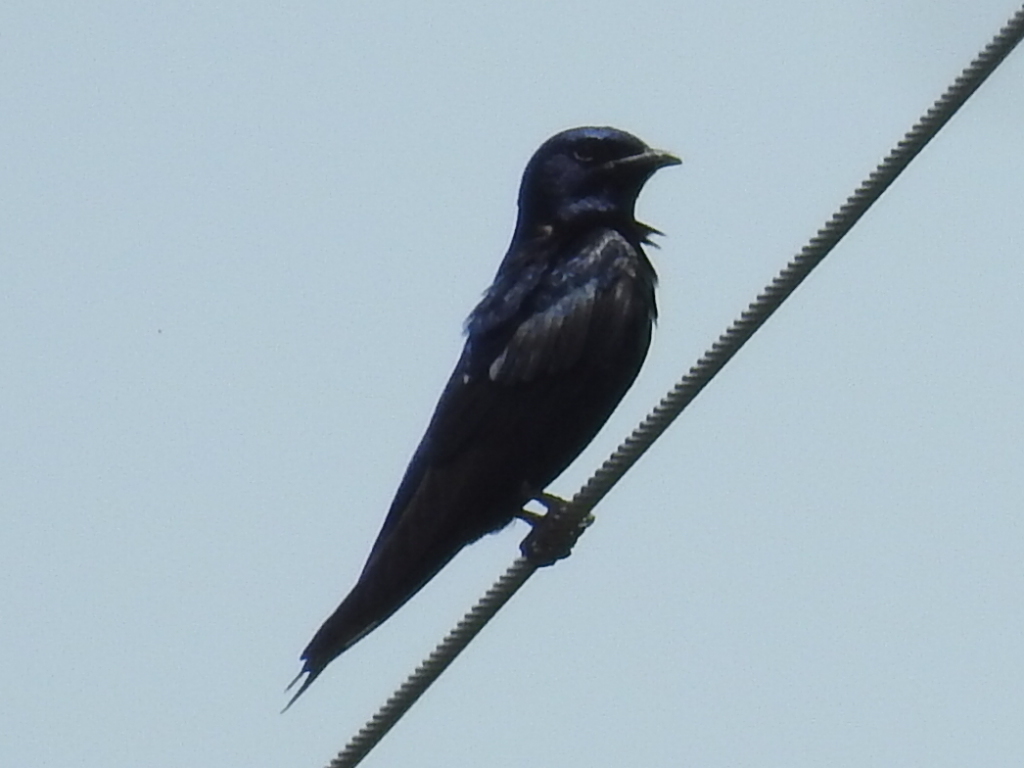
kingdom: Animalia
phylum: Chordata
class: Aves
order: Passeriformes
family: Hirundinidae
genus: Progne
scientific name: Progne subis
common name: Purple martin
